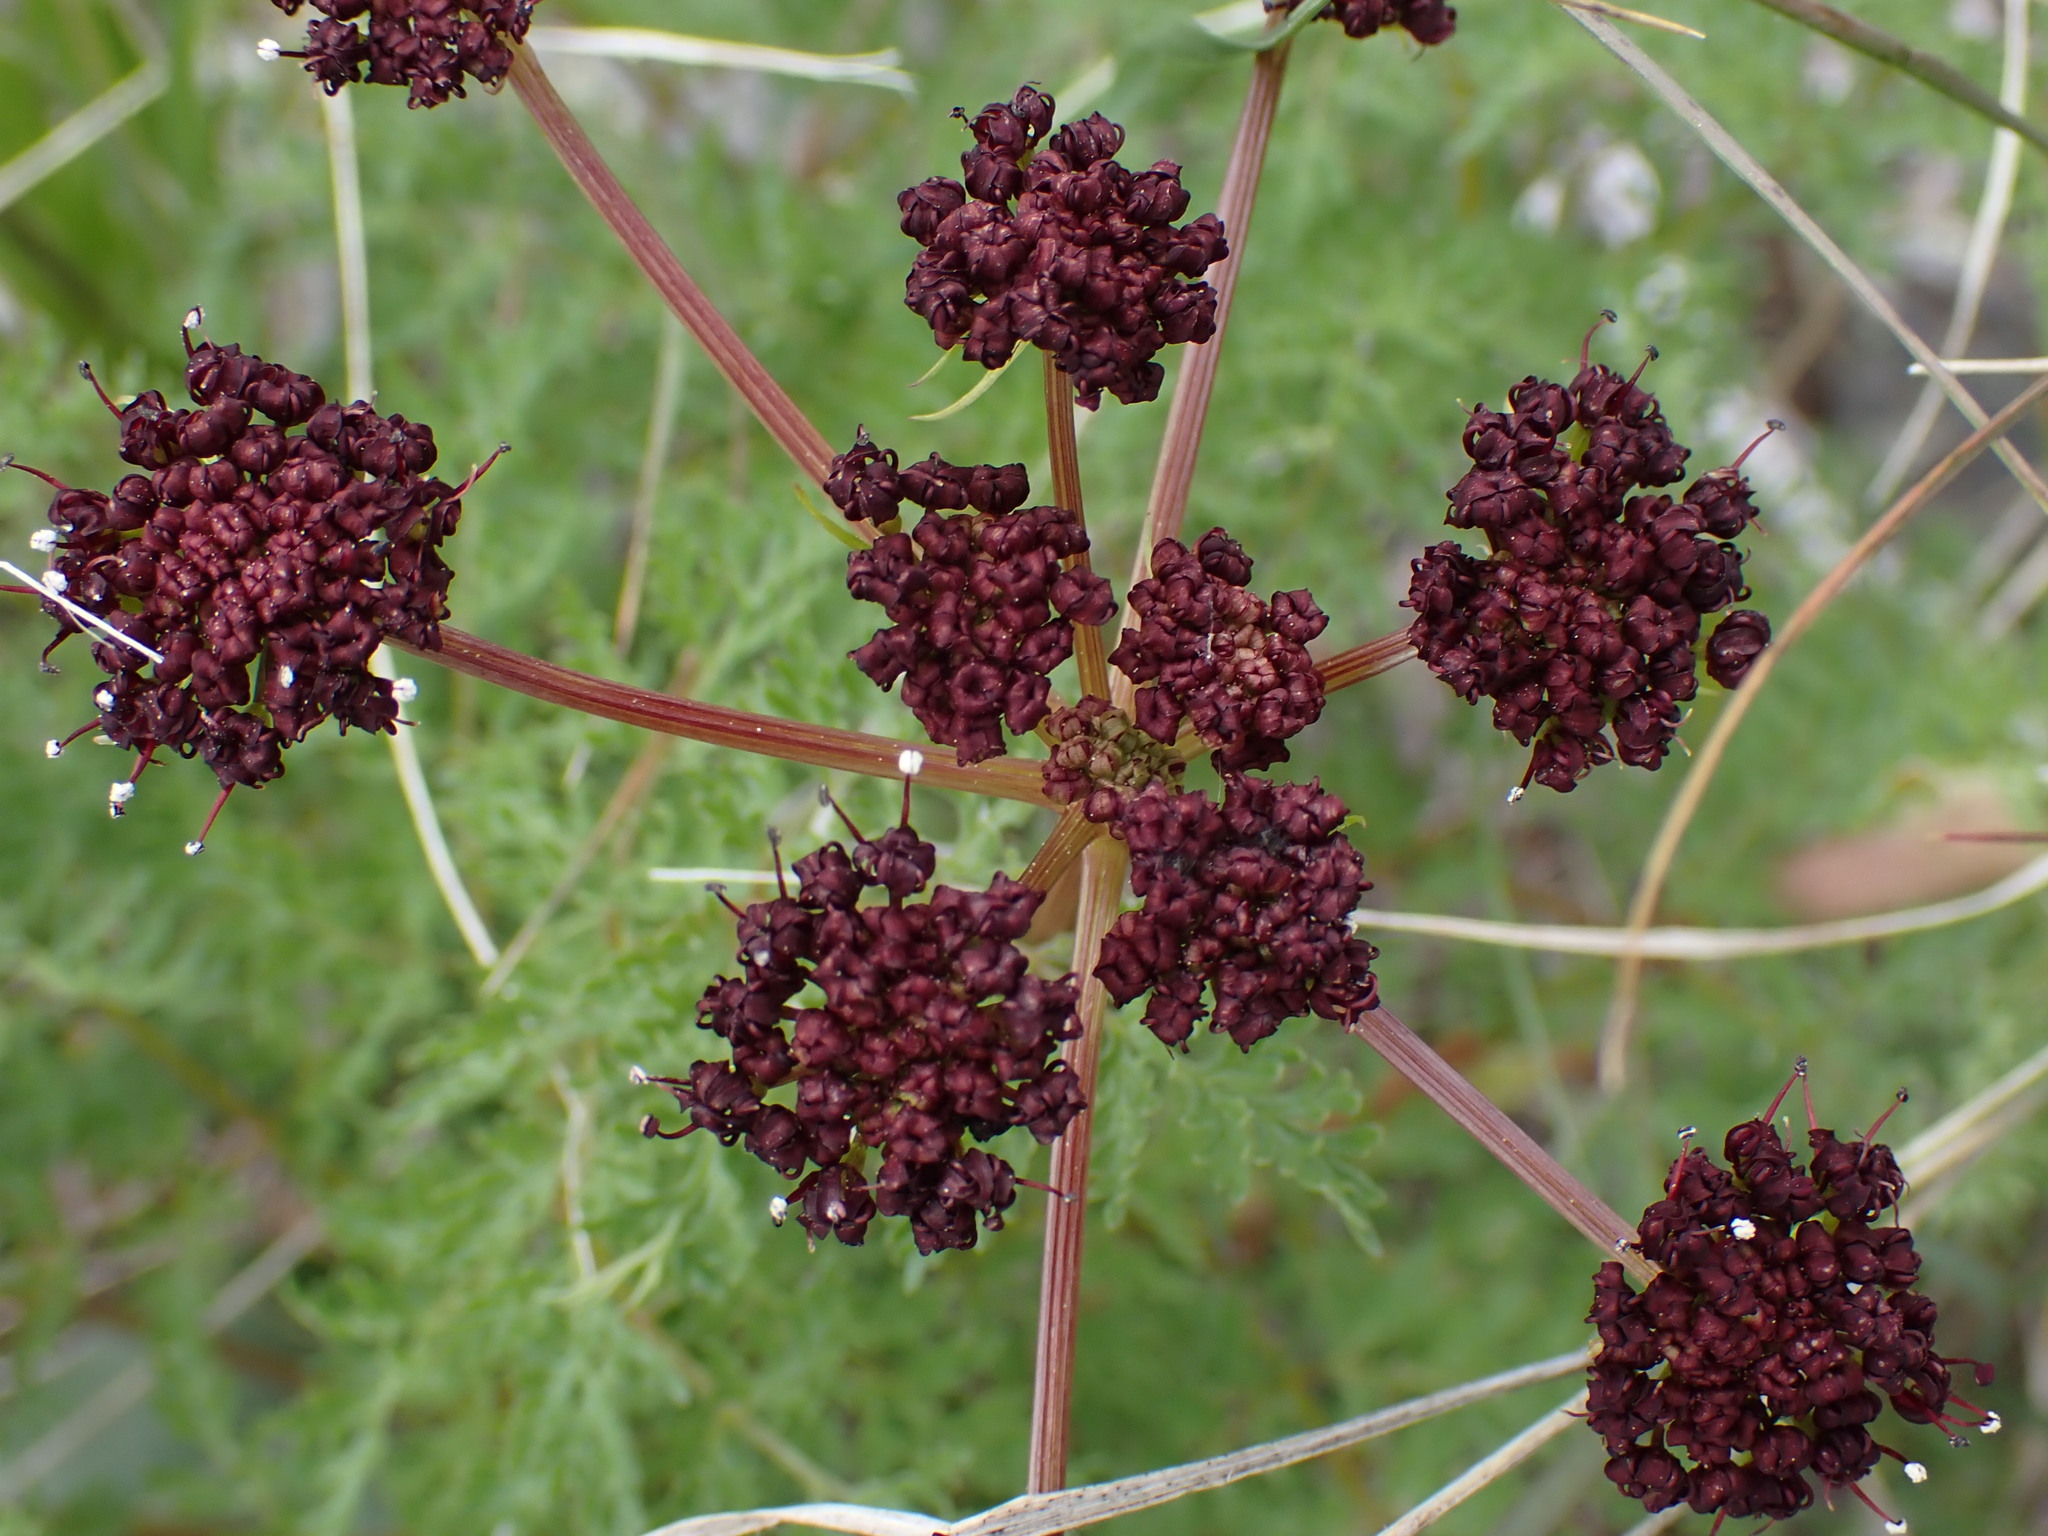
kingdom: Plantae
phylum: Tracheophyta
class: Magnoliopsida
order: Apiales
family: Apiaceae
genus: Lomatium
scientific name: Lomatium multifidum
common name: Carrot-leaved biscuitroot
